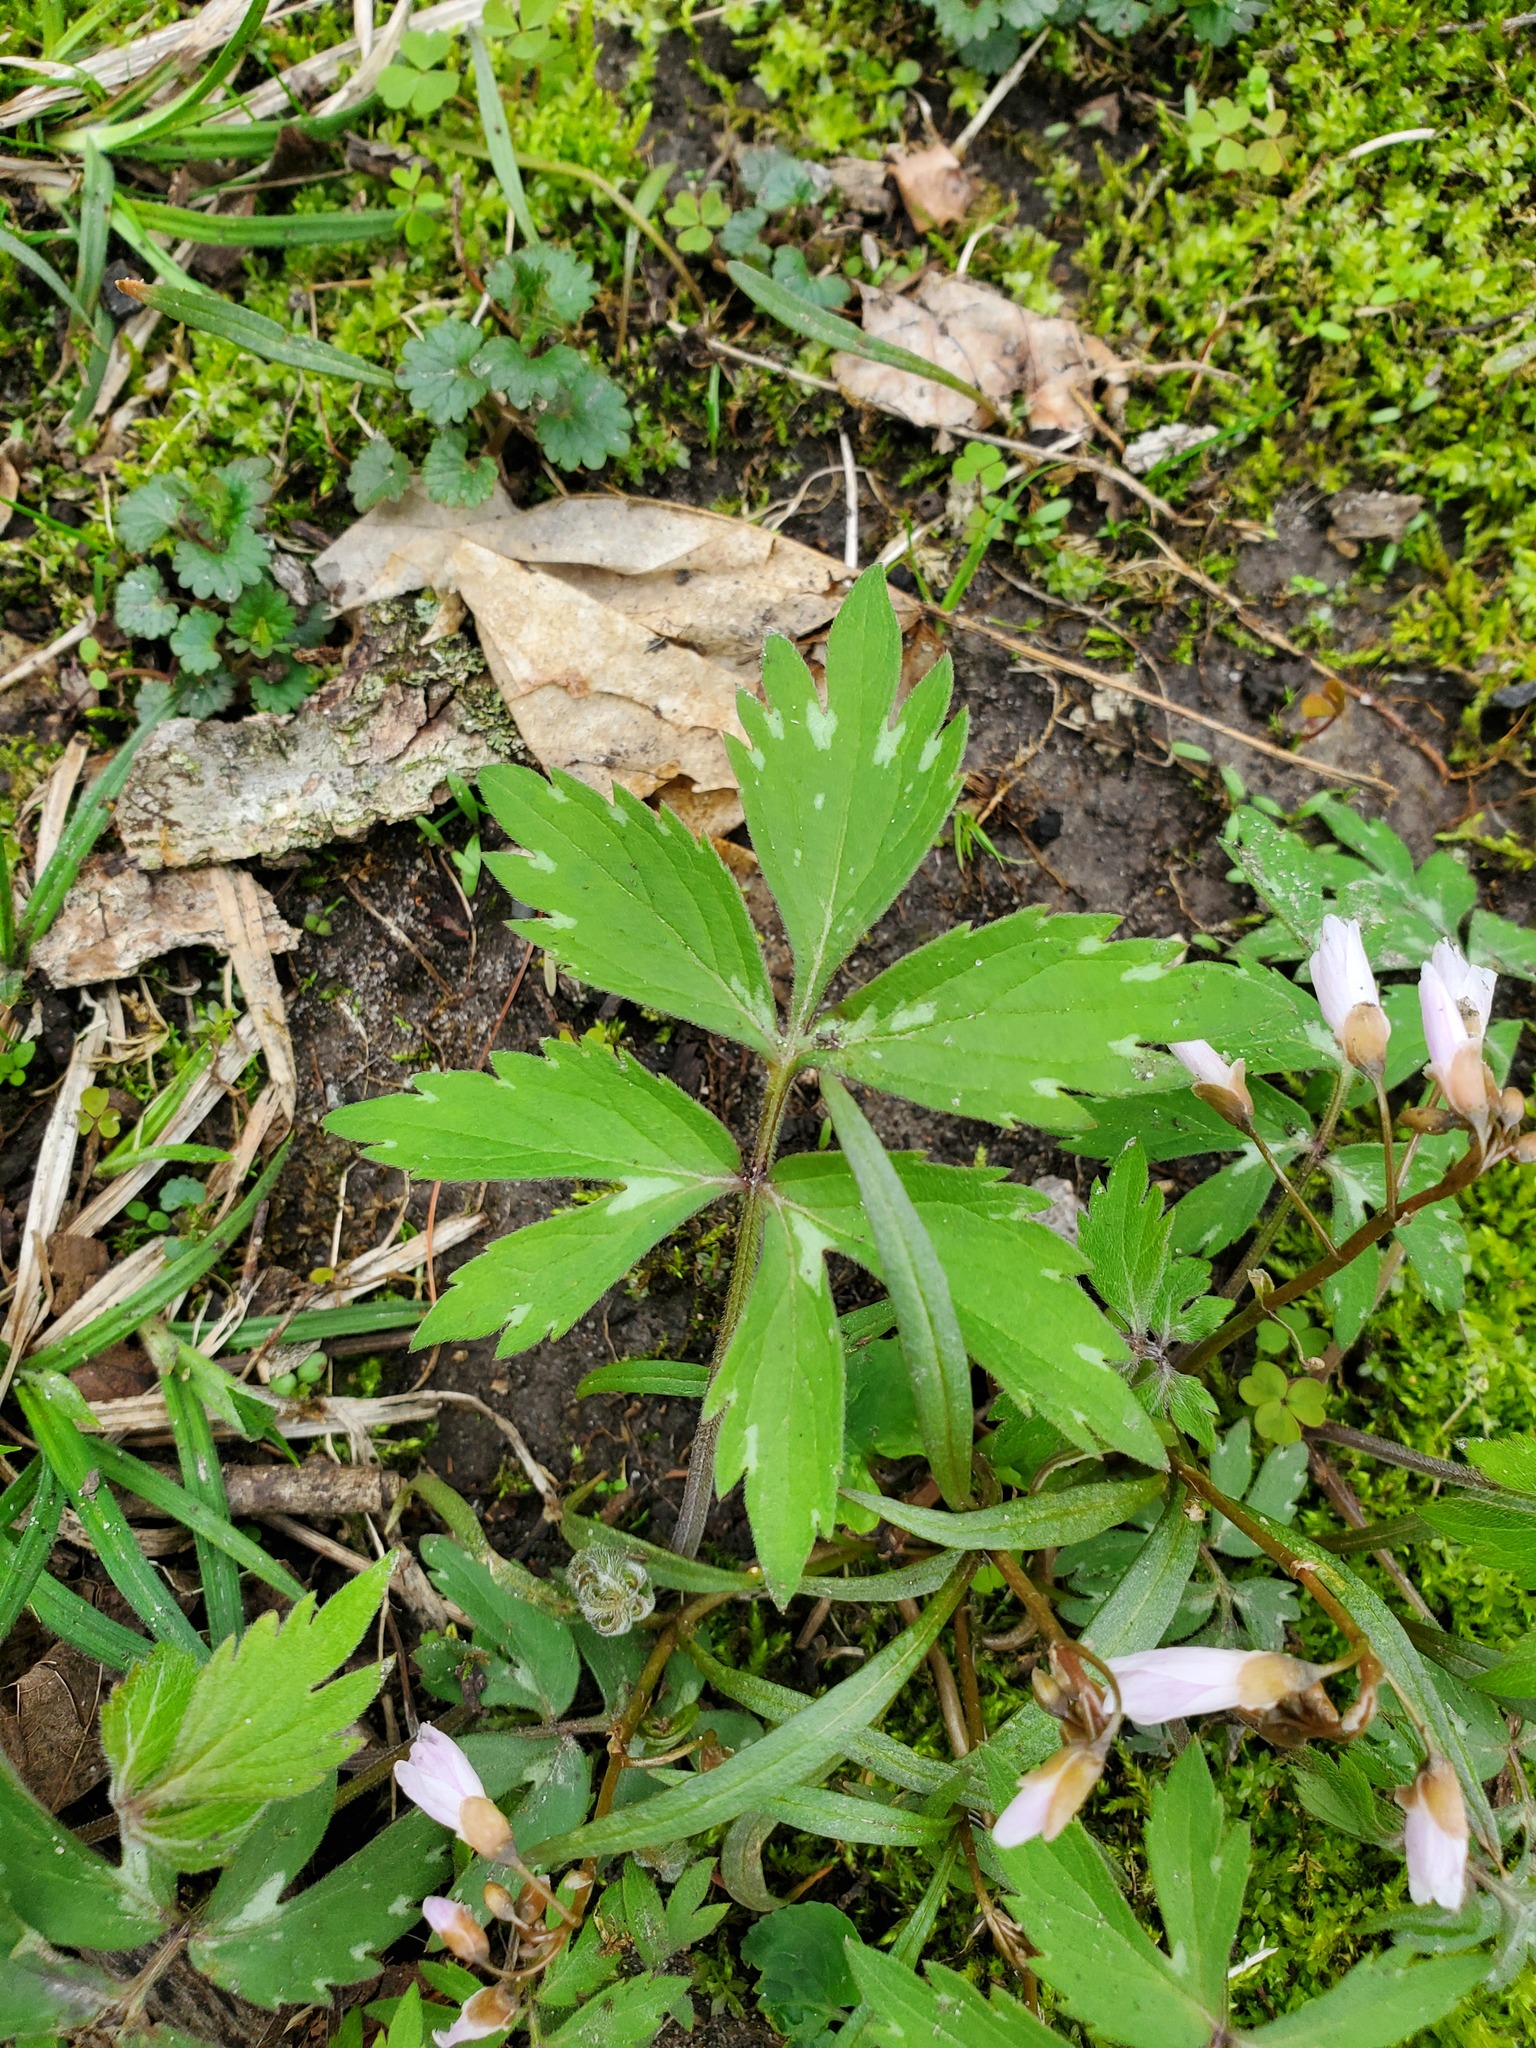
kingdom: Plantae
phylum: Tracheophyta
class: Magnoliopsida
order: Boraginales
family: Hydrophyllaceae
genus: Hydrophyllum
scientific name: Hydrophyllum virginianum
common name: Virginia waterleaf
